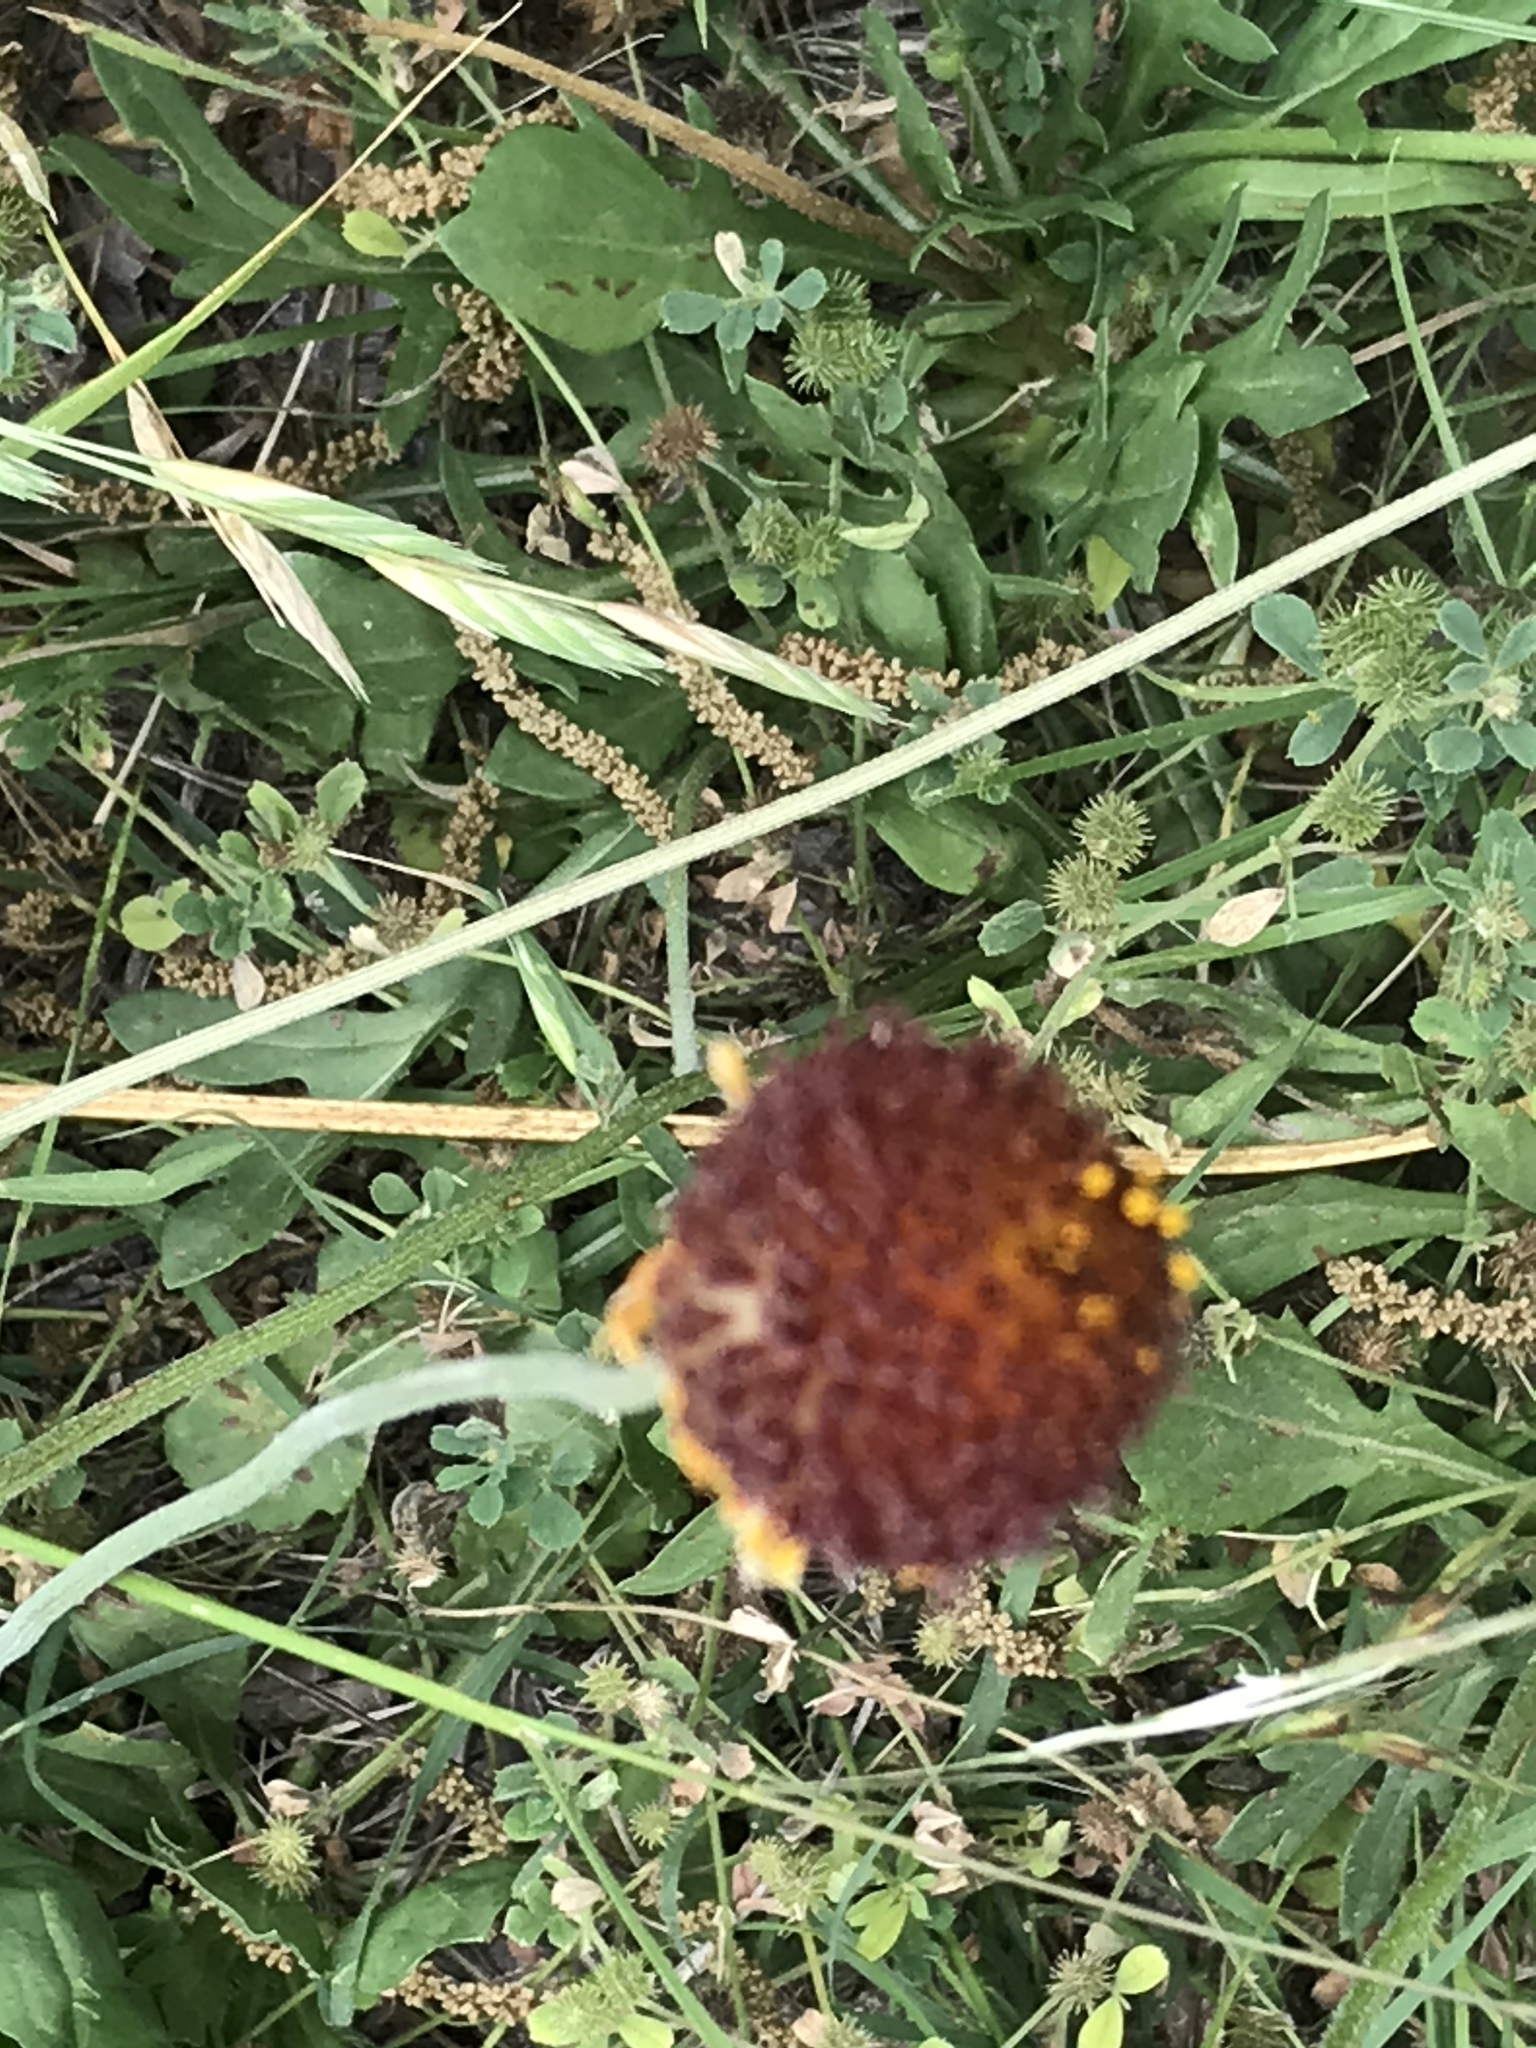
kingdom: Plantae
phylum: Tracheophyta
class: Magnoliopsida
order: Asterales
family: Asteraceae
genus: Gaillardia
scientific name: Gaillardia suavis
